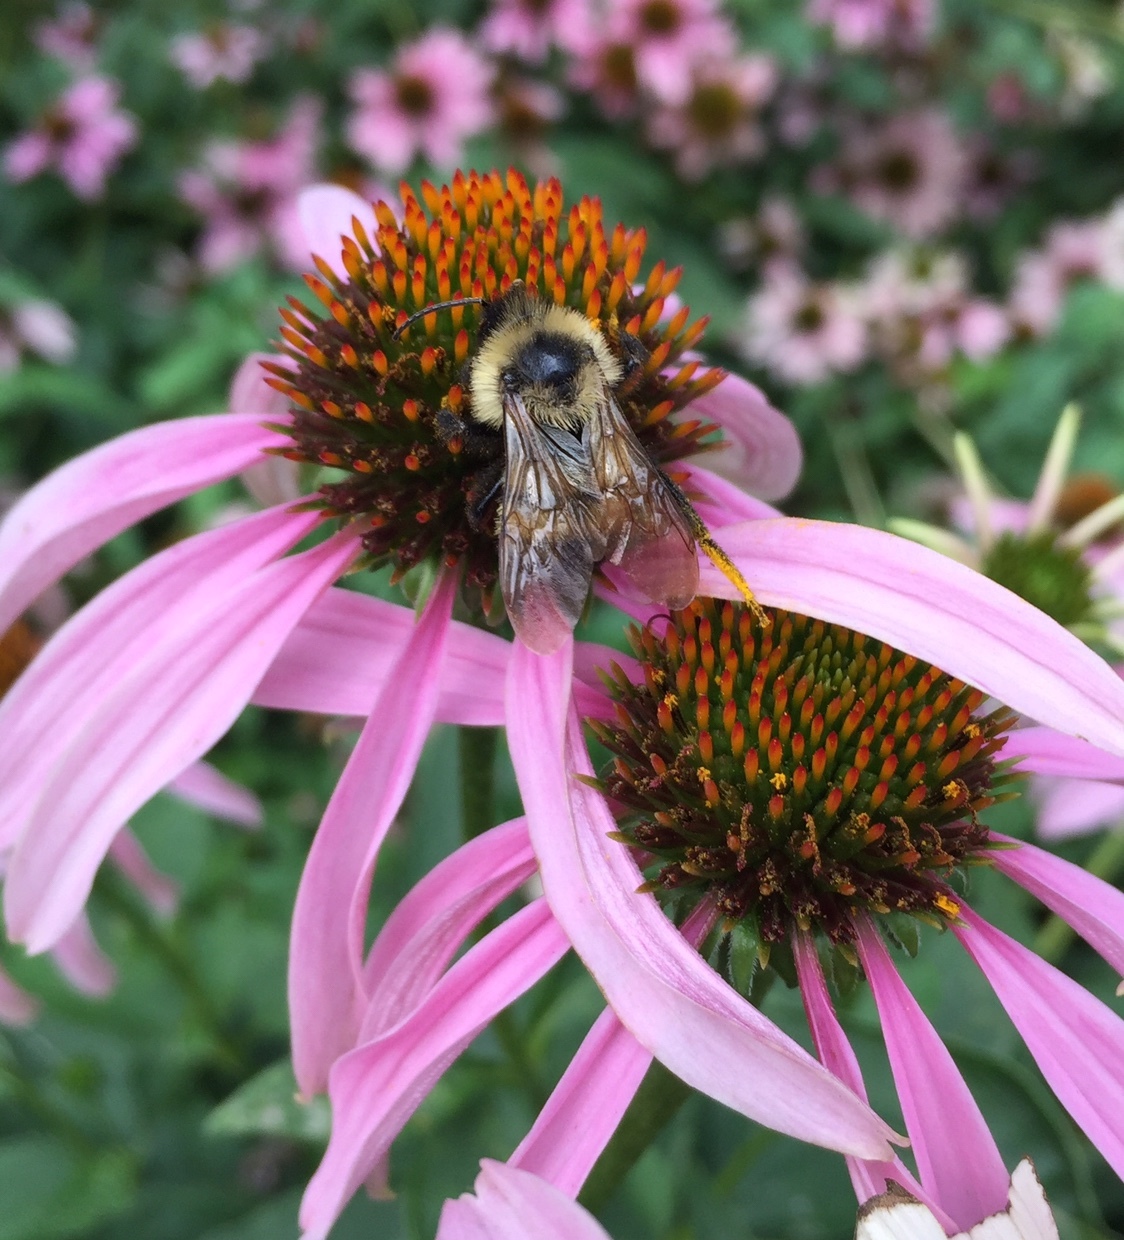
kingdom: Animalia
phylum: Arthropoda
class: Insecta
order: Hymenoptera
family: Apidae
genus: Bombus
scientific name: Bombus citrinus
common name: Lemon cuckoo bumble bee
